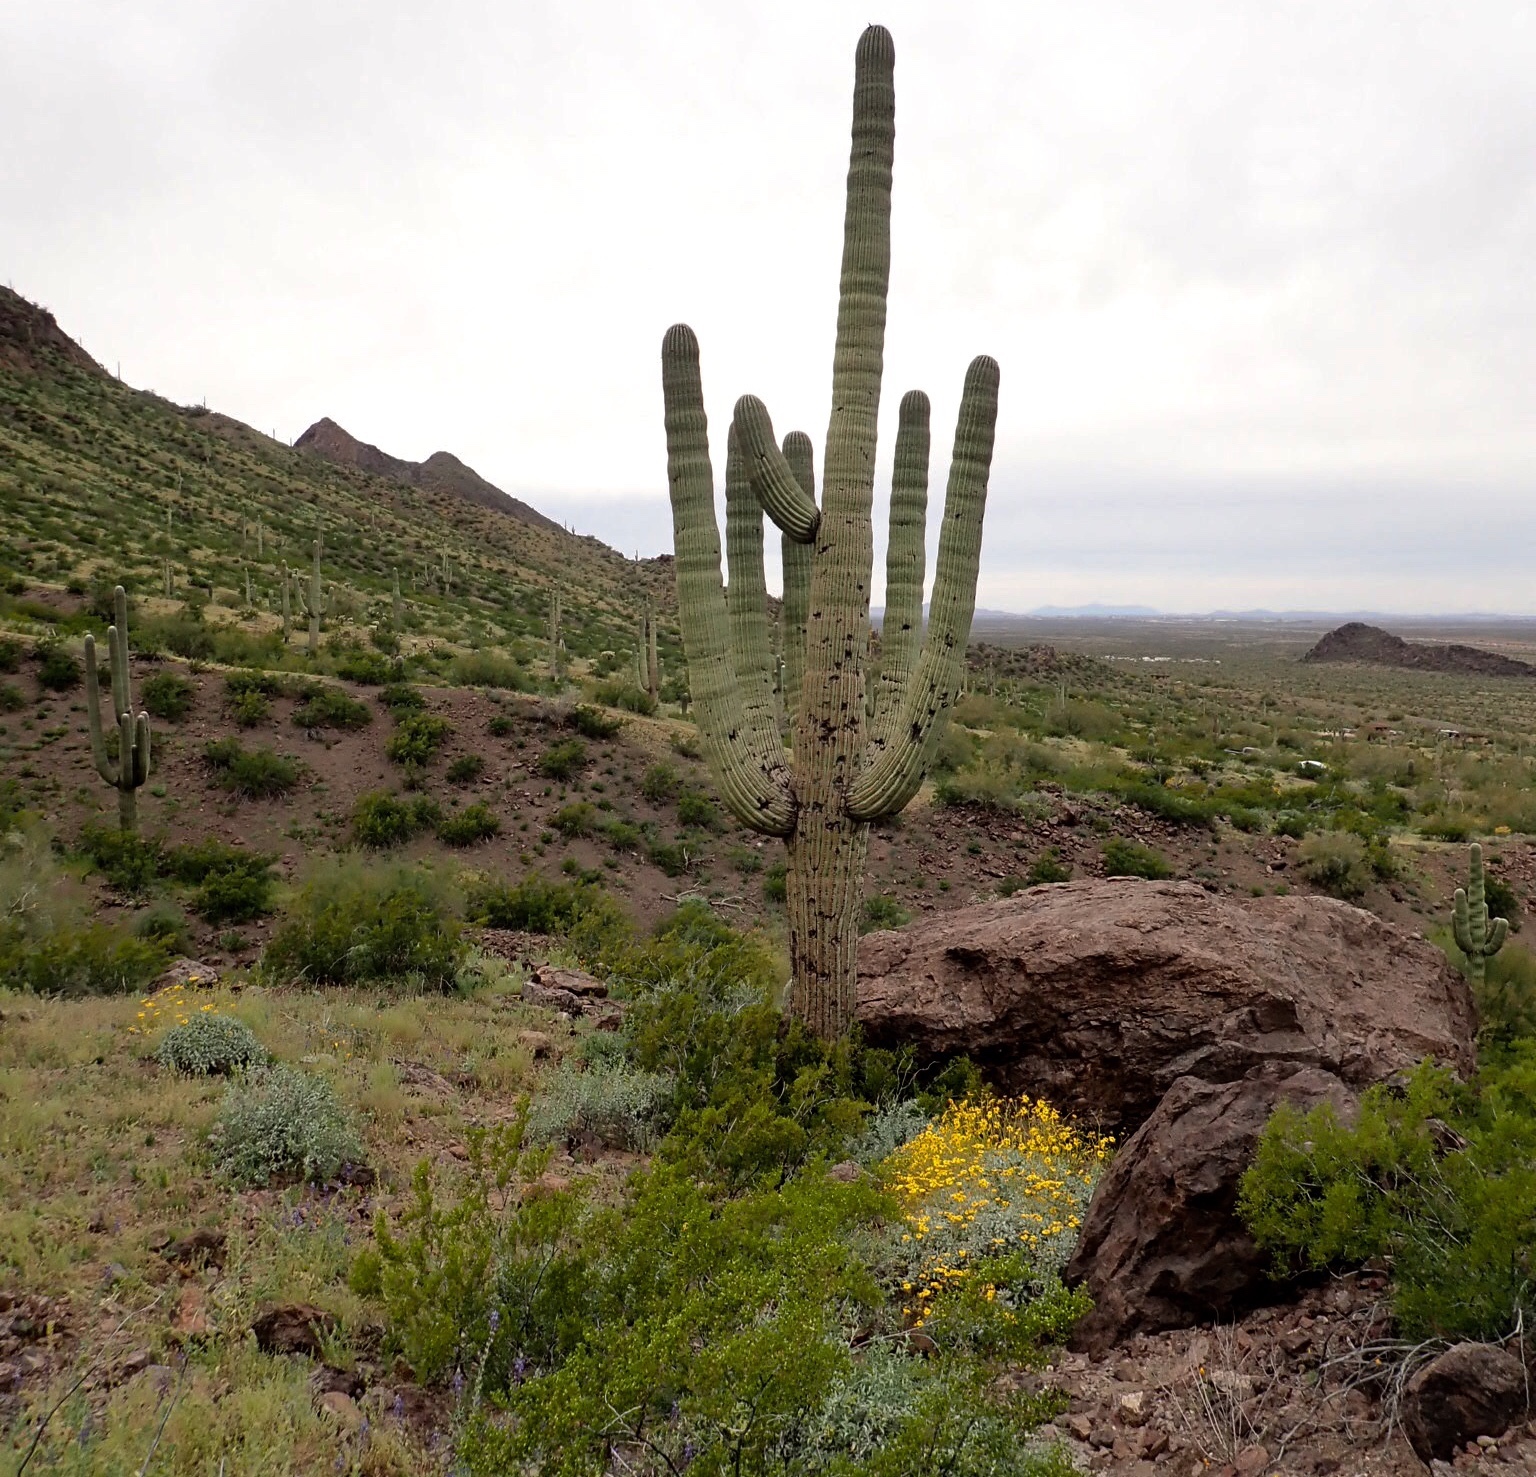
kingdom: Plantae
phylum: Tracheophyta
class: Magnoliopsida
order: Caryophyllales
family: Cactaceae
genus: Carnegiea
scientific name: Carnegiea gigantea
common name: Saguaro
